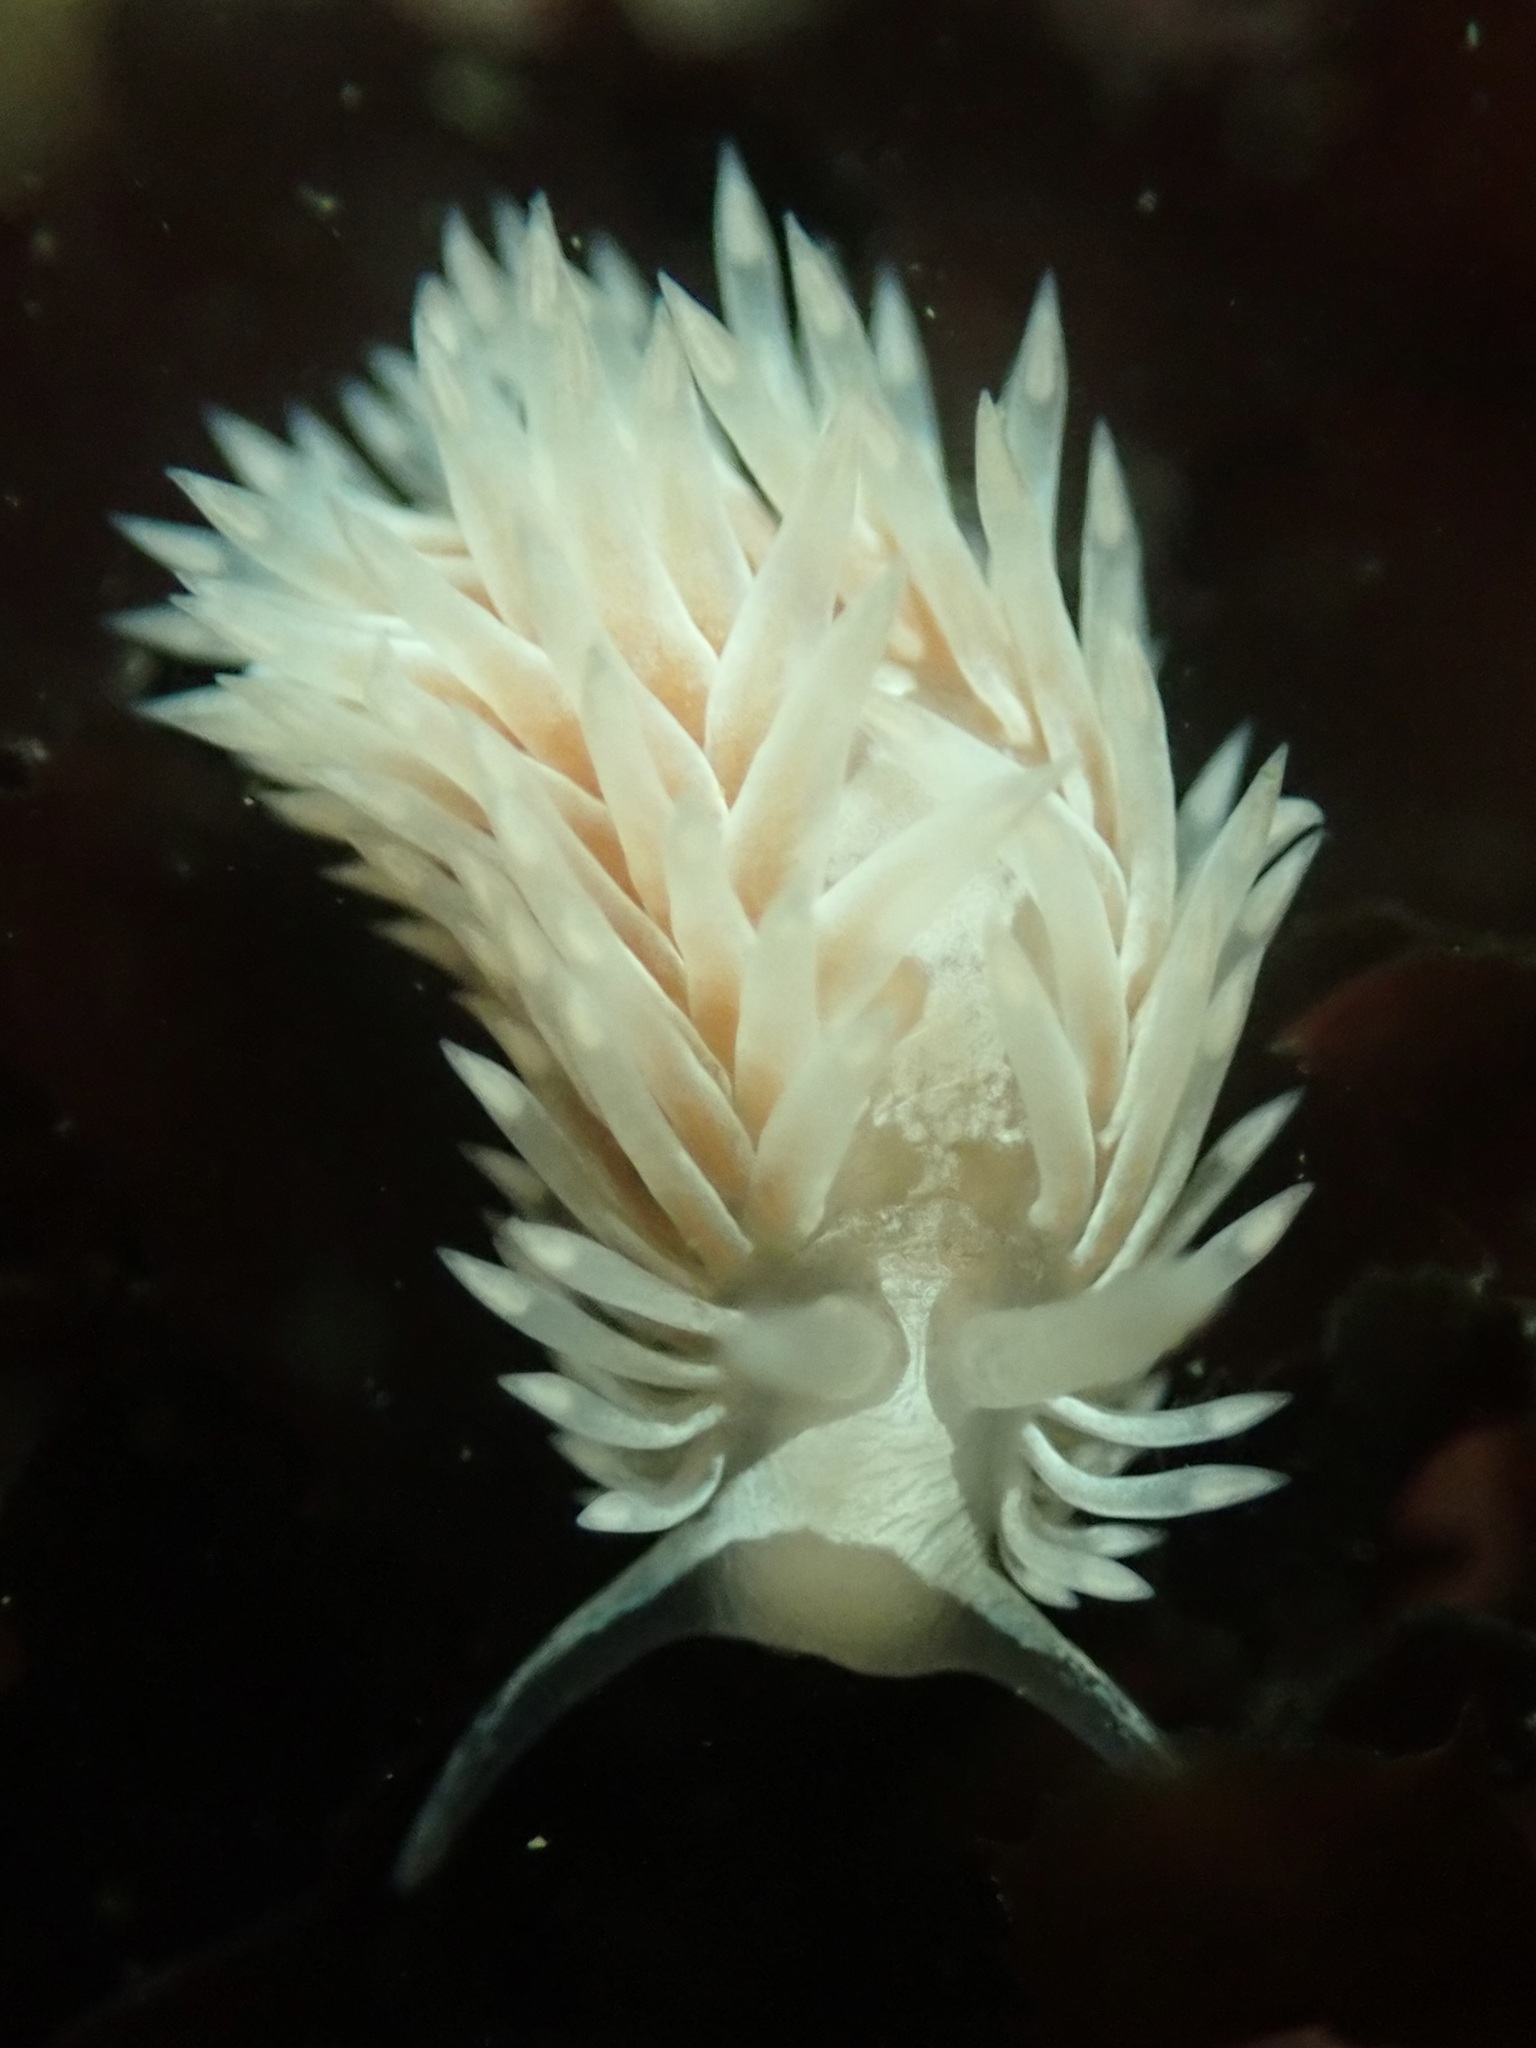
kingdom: Animalia
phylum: Mollusca
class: Gastropoda
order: Nudibranchia
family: Aeolidiidae
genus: Aeolidia
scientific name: Aeolidia loui
